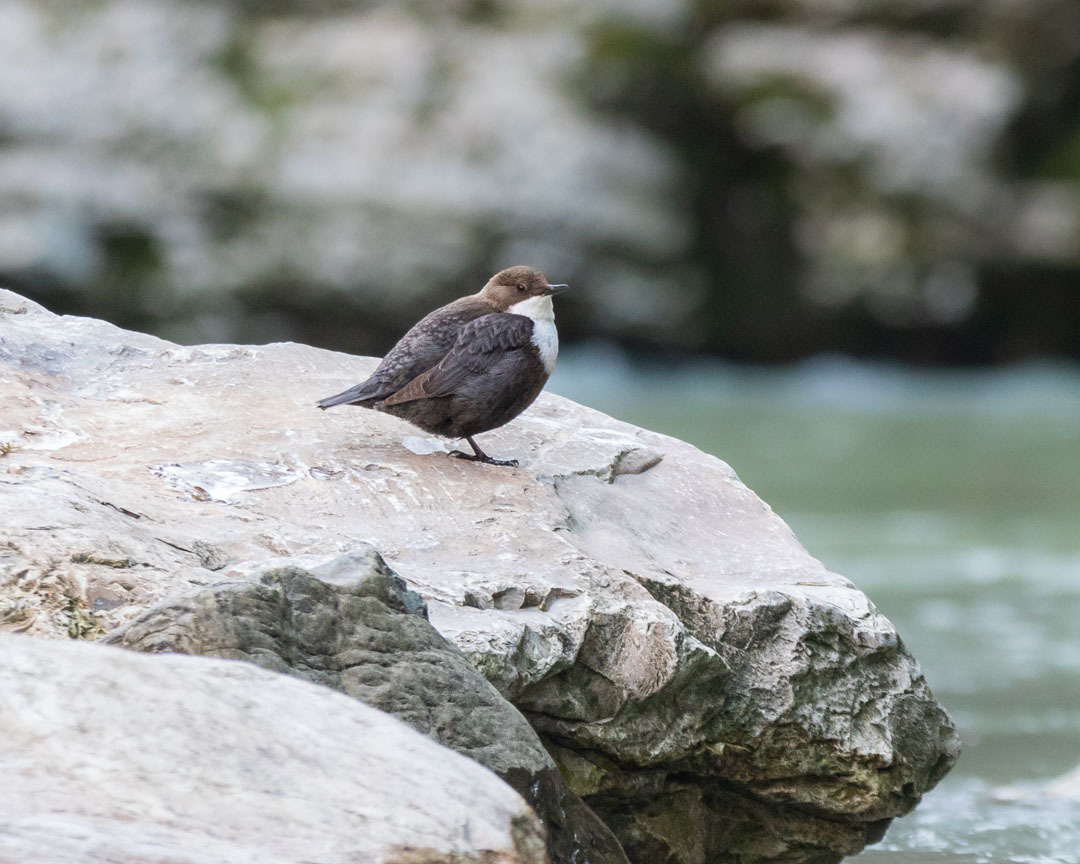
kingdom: Animalia
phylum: Chordata
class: Aves
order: Passeriformes
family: Cinclidae
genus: Cinclus
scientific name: Cinclus cinclus
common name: White-throated dipper
